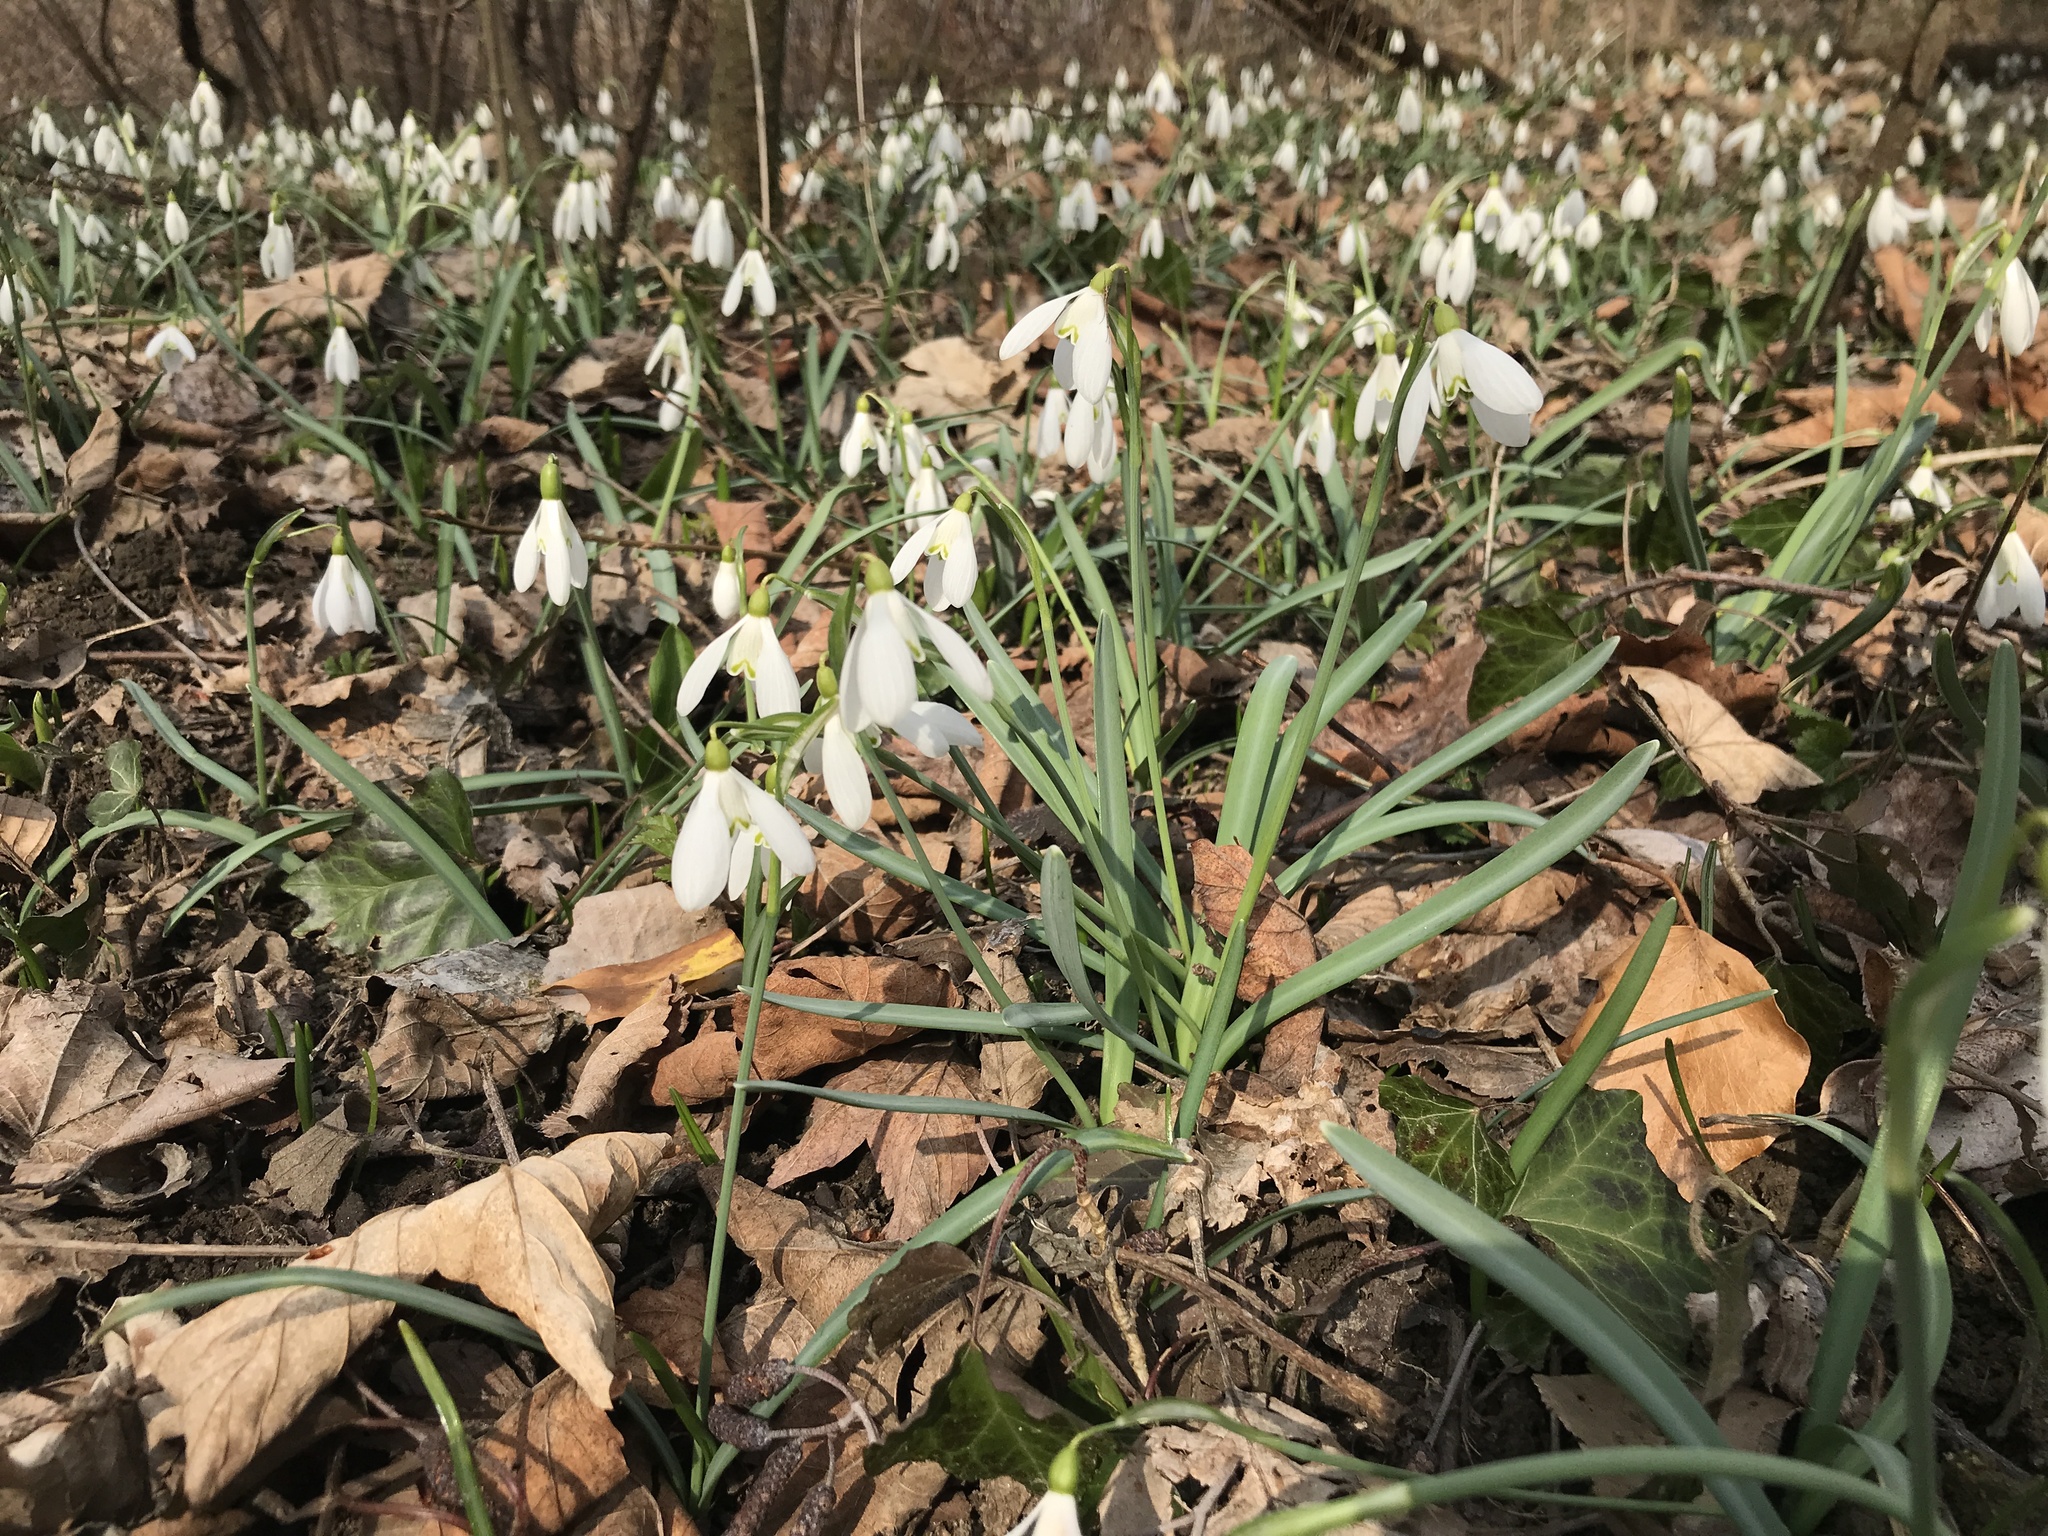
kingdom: Plantae
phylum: Tracheophyta
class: Liliopsida
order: Asparagales
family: Amaryllidaceae
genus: Galanthus
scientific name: Galanthus nivalis
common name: Snowdrop
